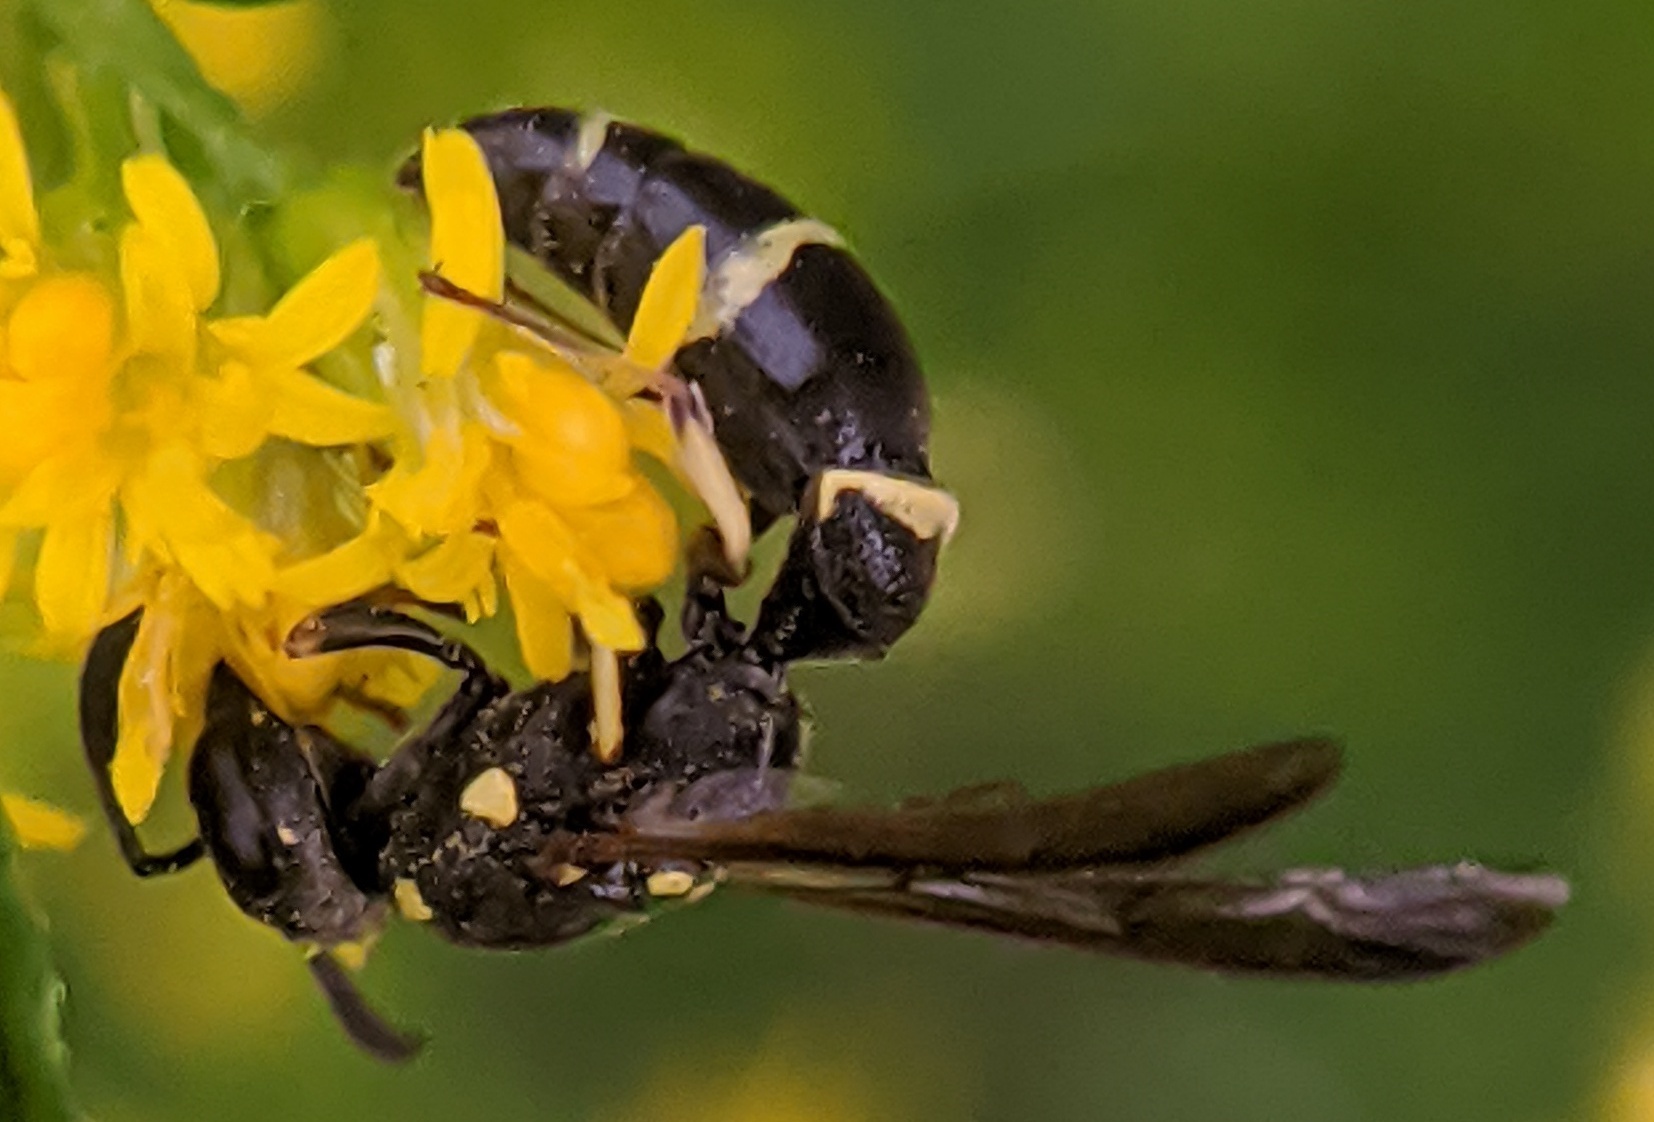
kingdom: Animalia
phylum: Arthropoda
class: Insecta
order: Hymenoptera
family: Eumenidae
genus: Symmorphus
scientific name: Symmorphus canadensis
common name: Canadian potter wasp
